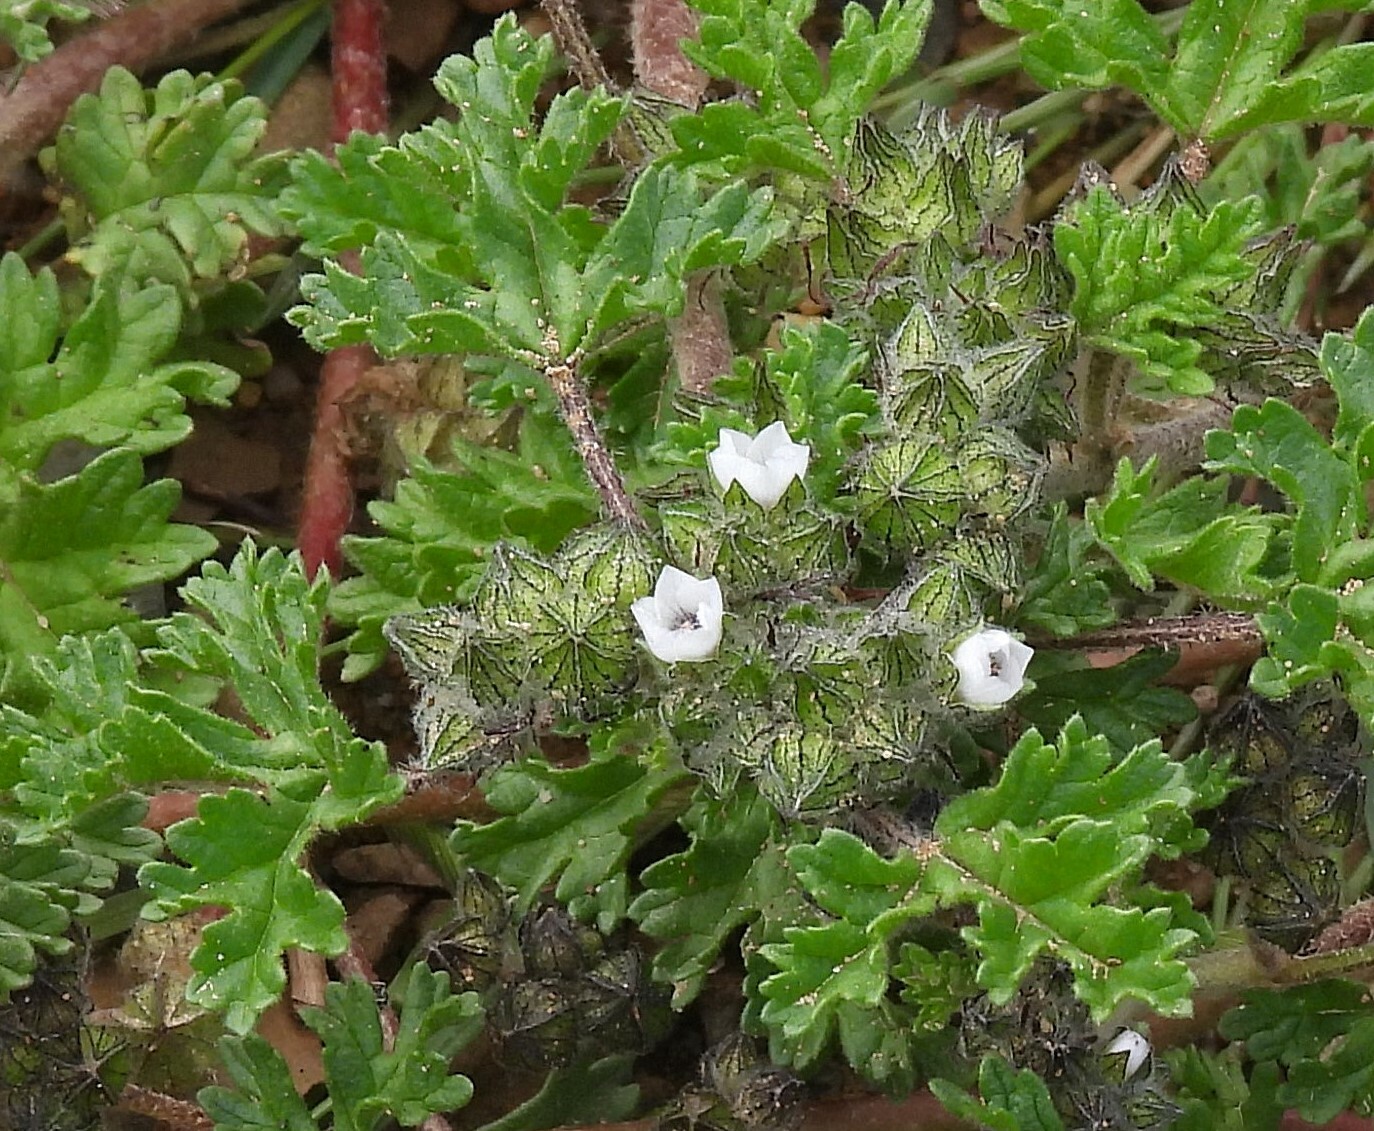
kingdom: Plantae
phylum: Tracheophyta
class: Magnoliopsida
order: Malvales
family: Malvaceae
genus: Tarasa
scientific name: Tarasa tenella
